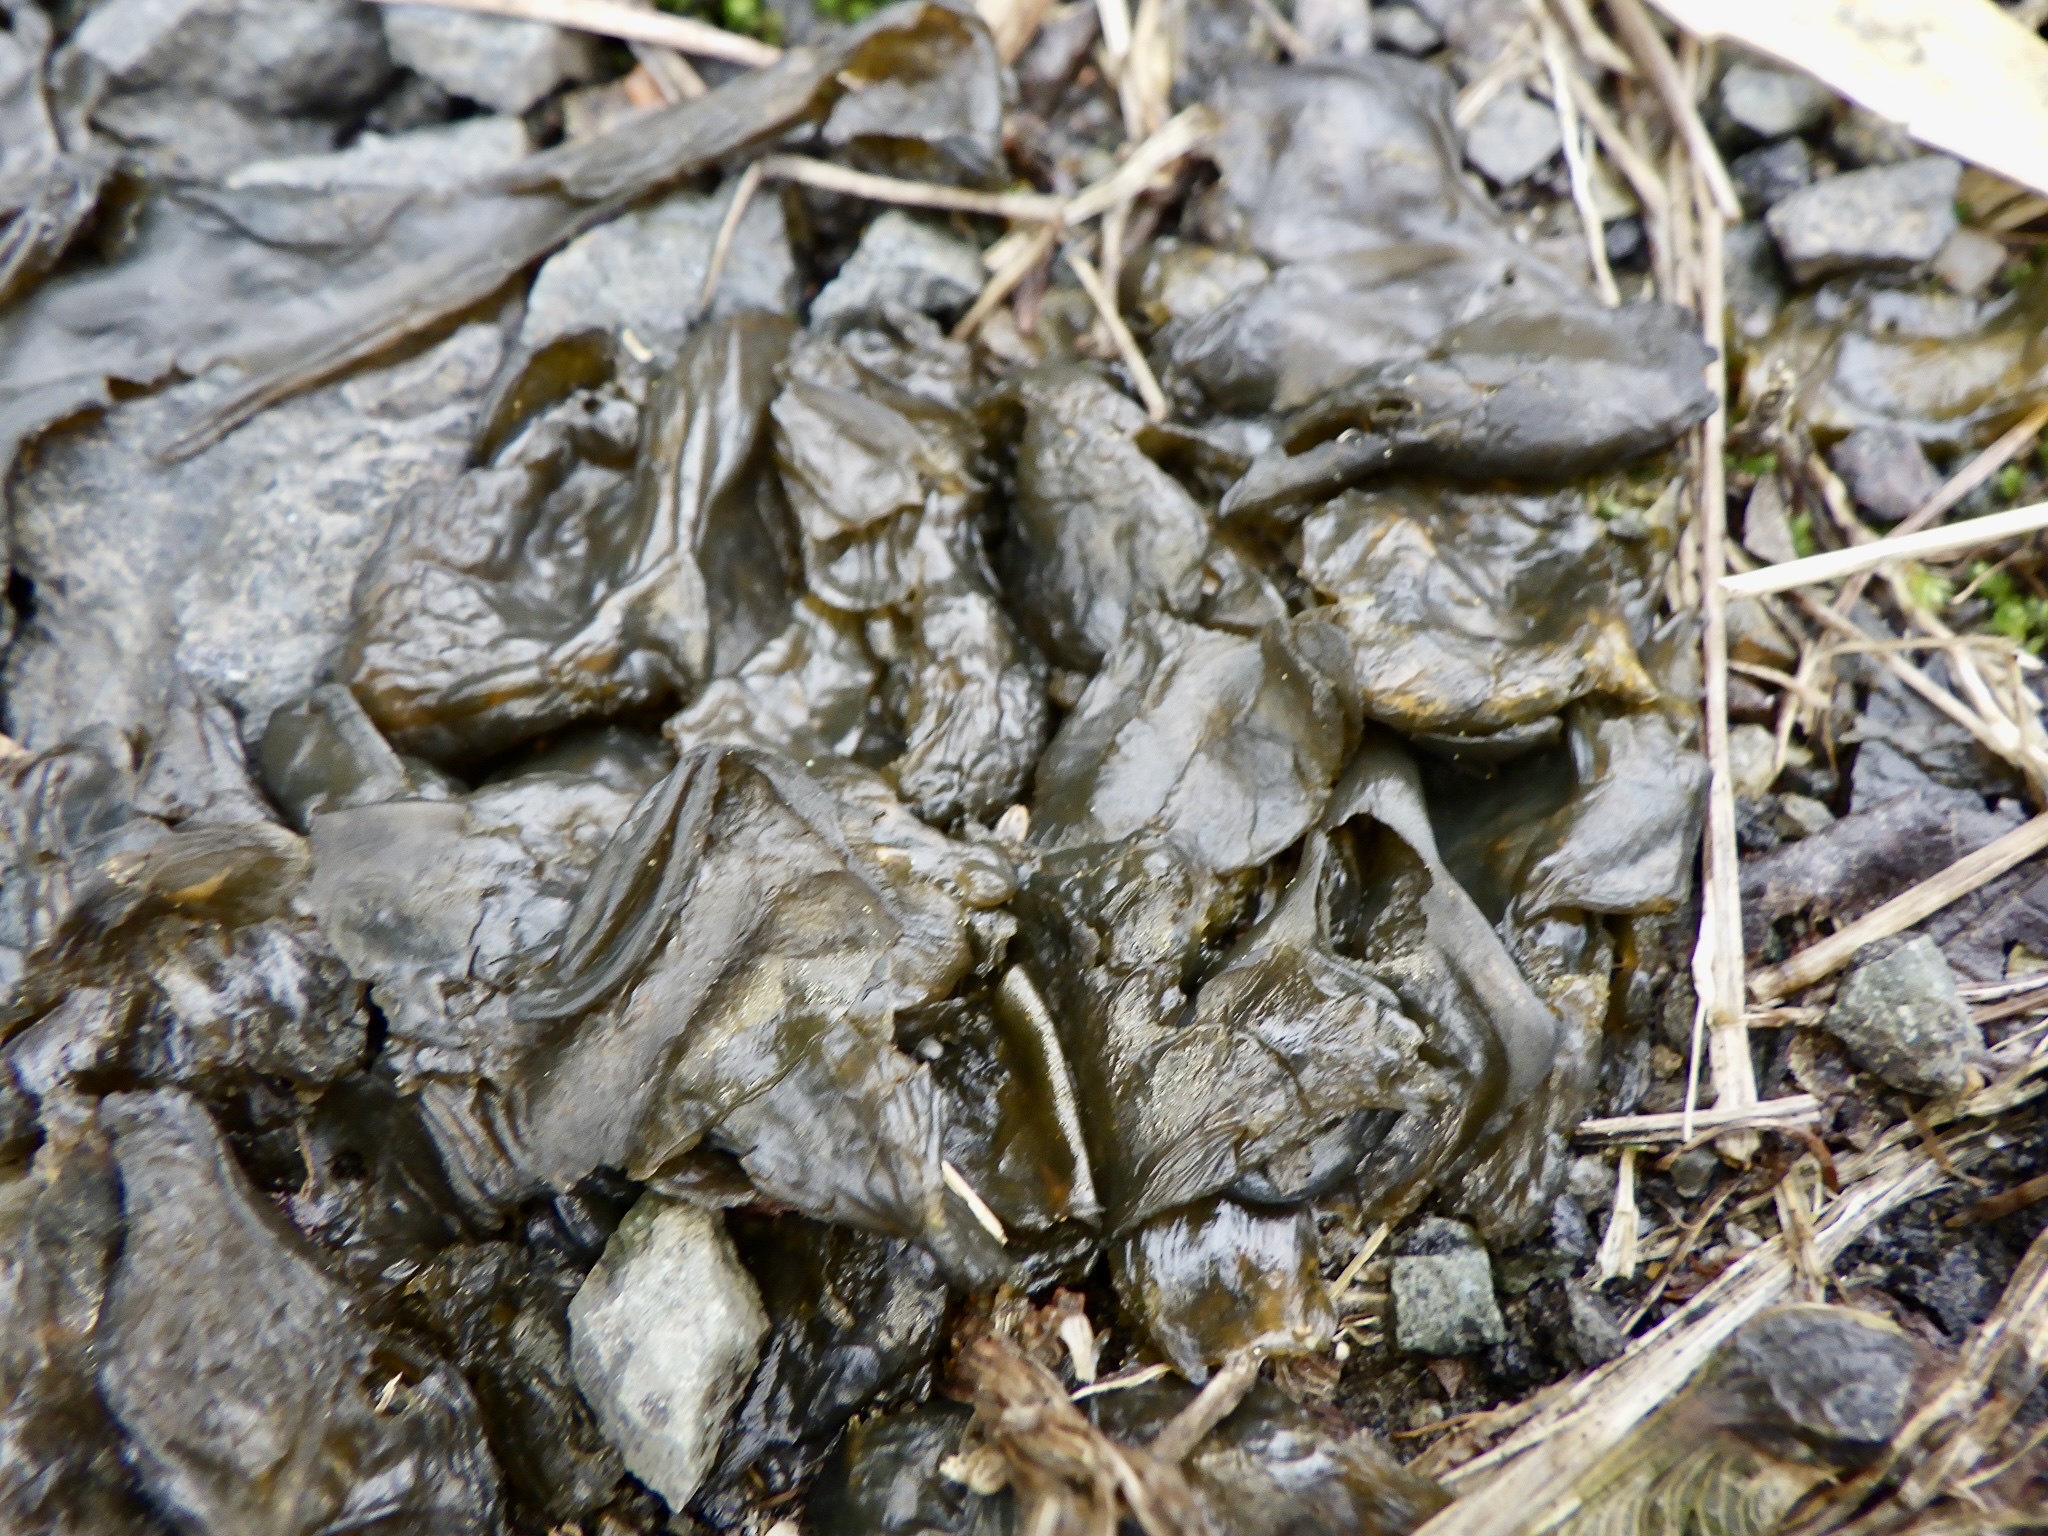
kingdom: Bacteria
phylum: Cyanobacteria
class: Cyanobacteriia
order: Cyanobacteriales
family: Nostocaceae
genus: Nostoc
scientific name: Nostoc commune
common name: Star jelly
